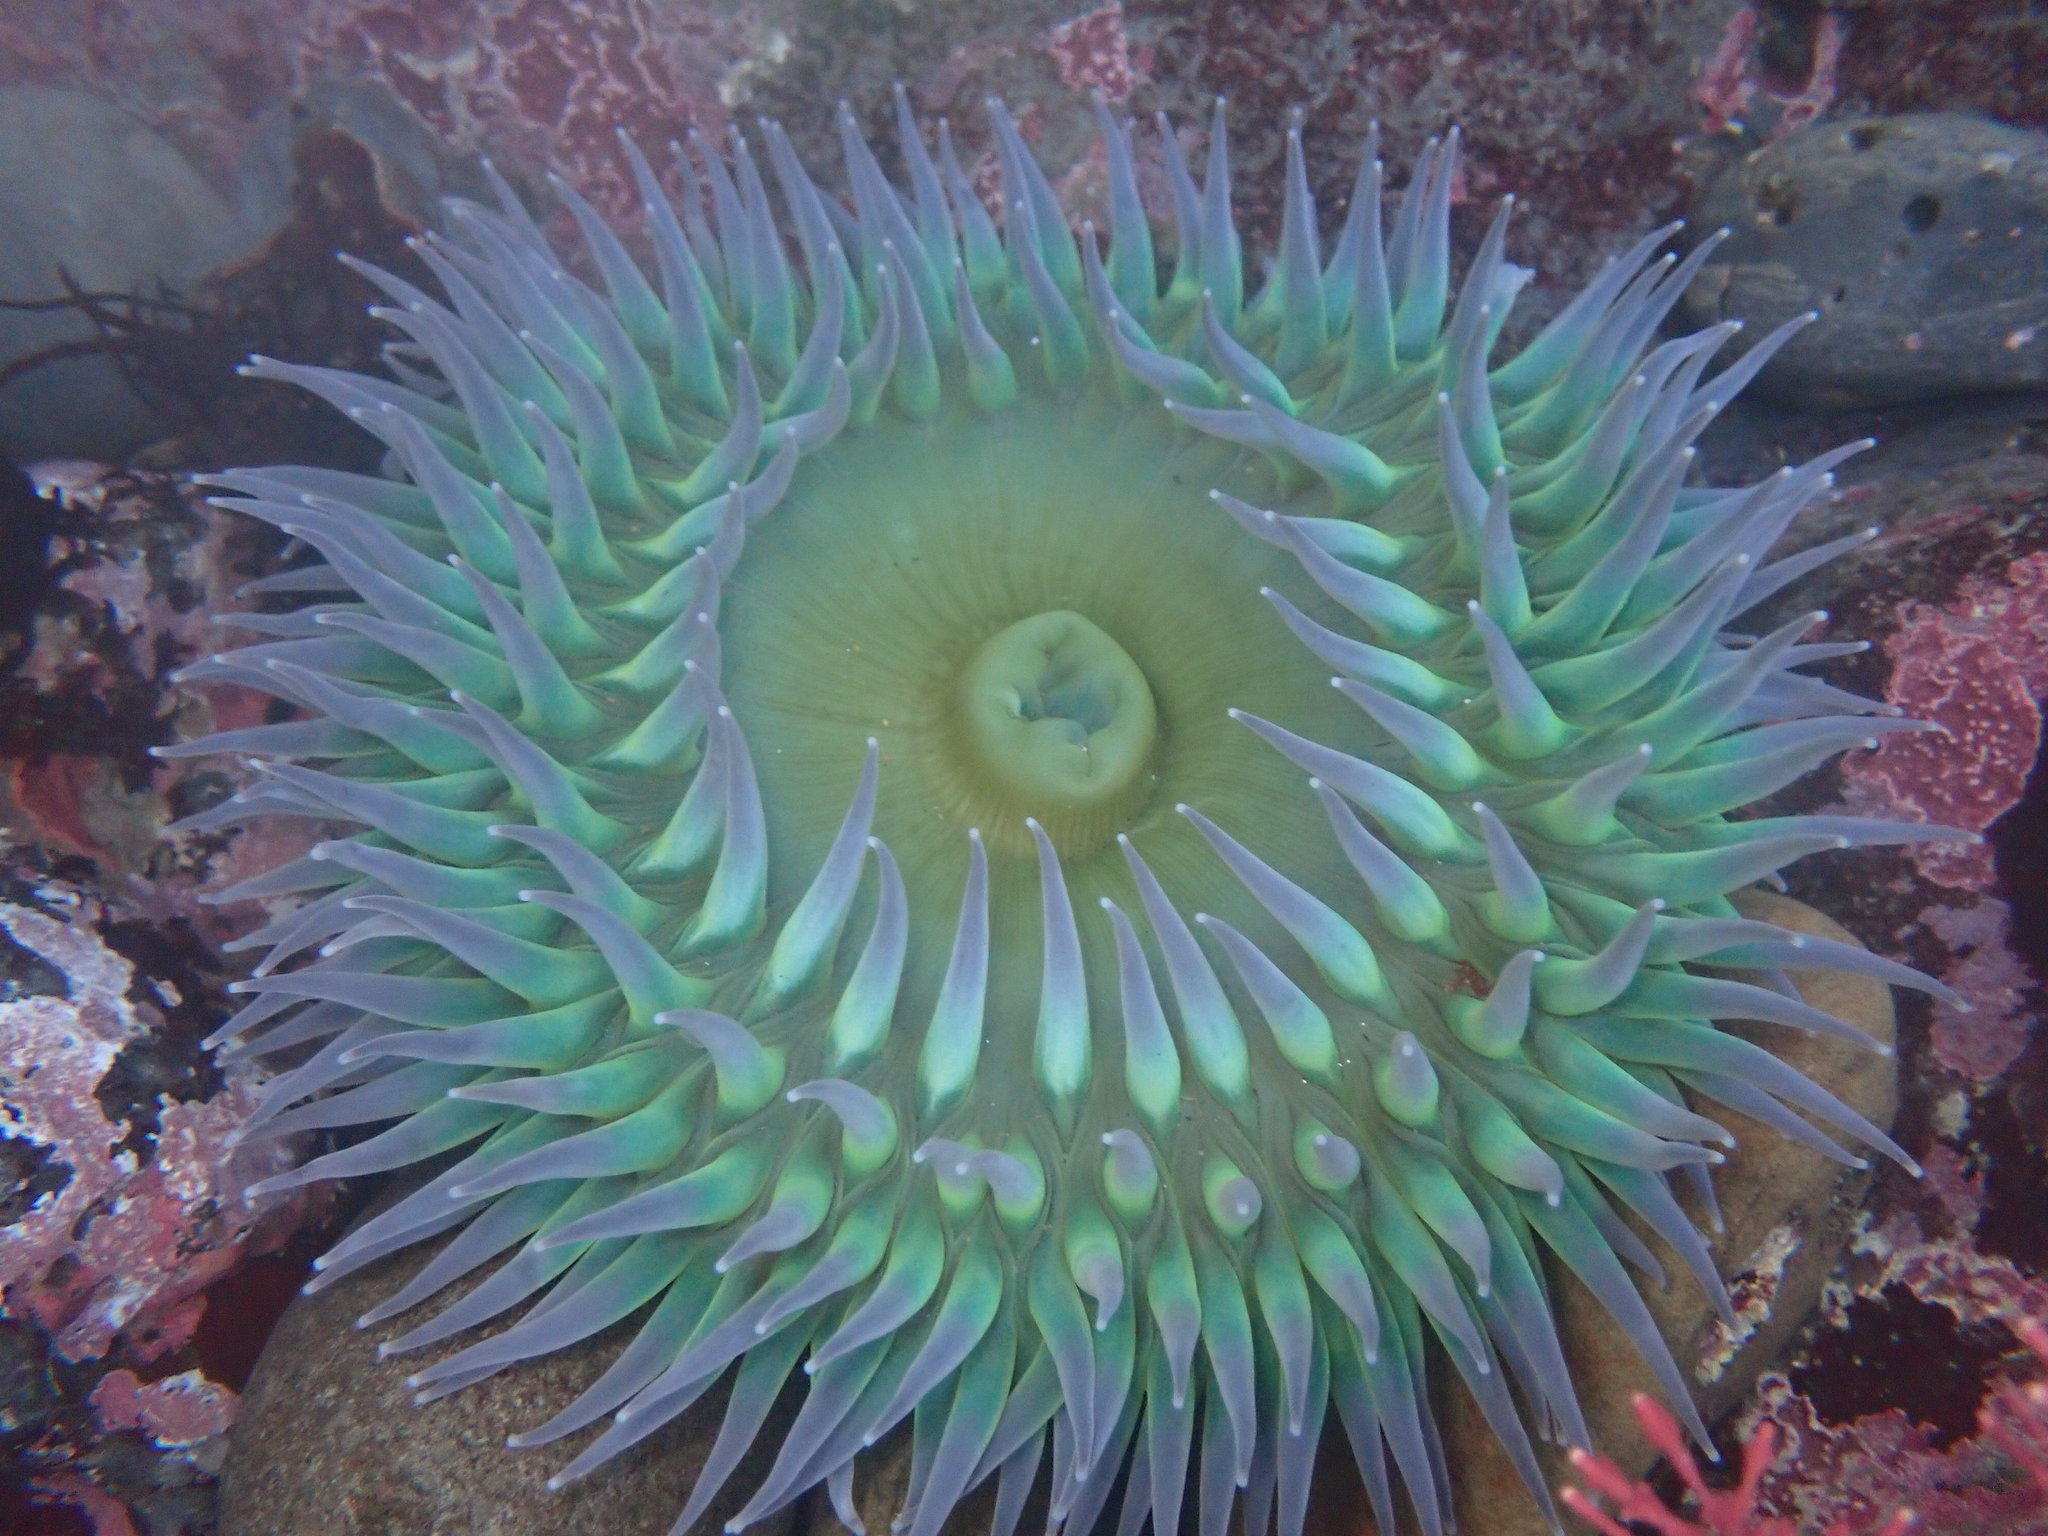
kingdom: Animalia
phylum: Cnidaria
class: Anthozoa
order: Actiniaria
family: Actiniidae
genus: Anthopleura
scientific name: Anthopleura xanthogrammica
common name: Giant green anemone
